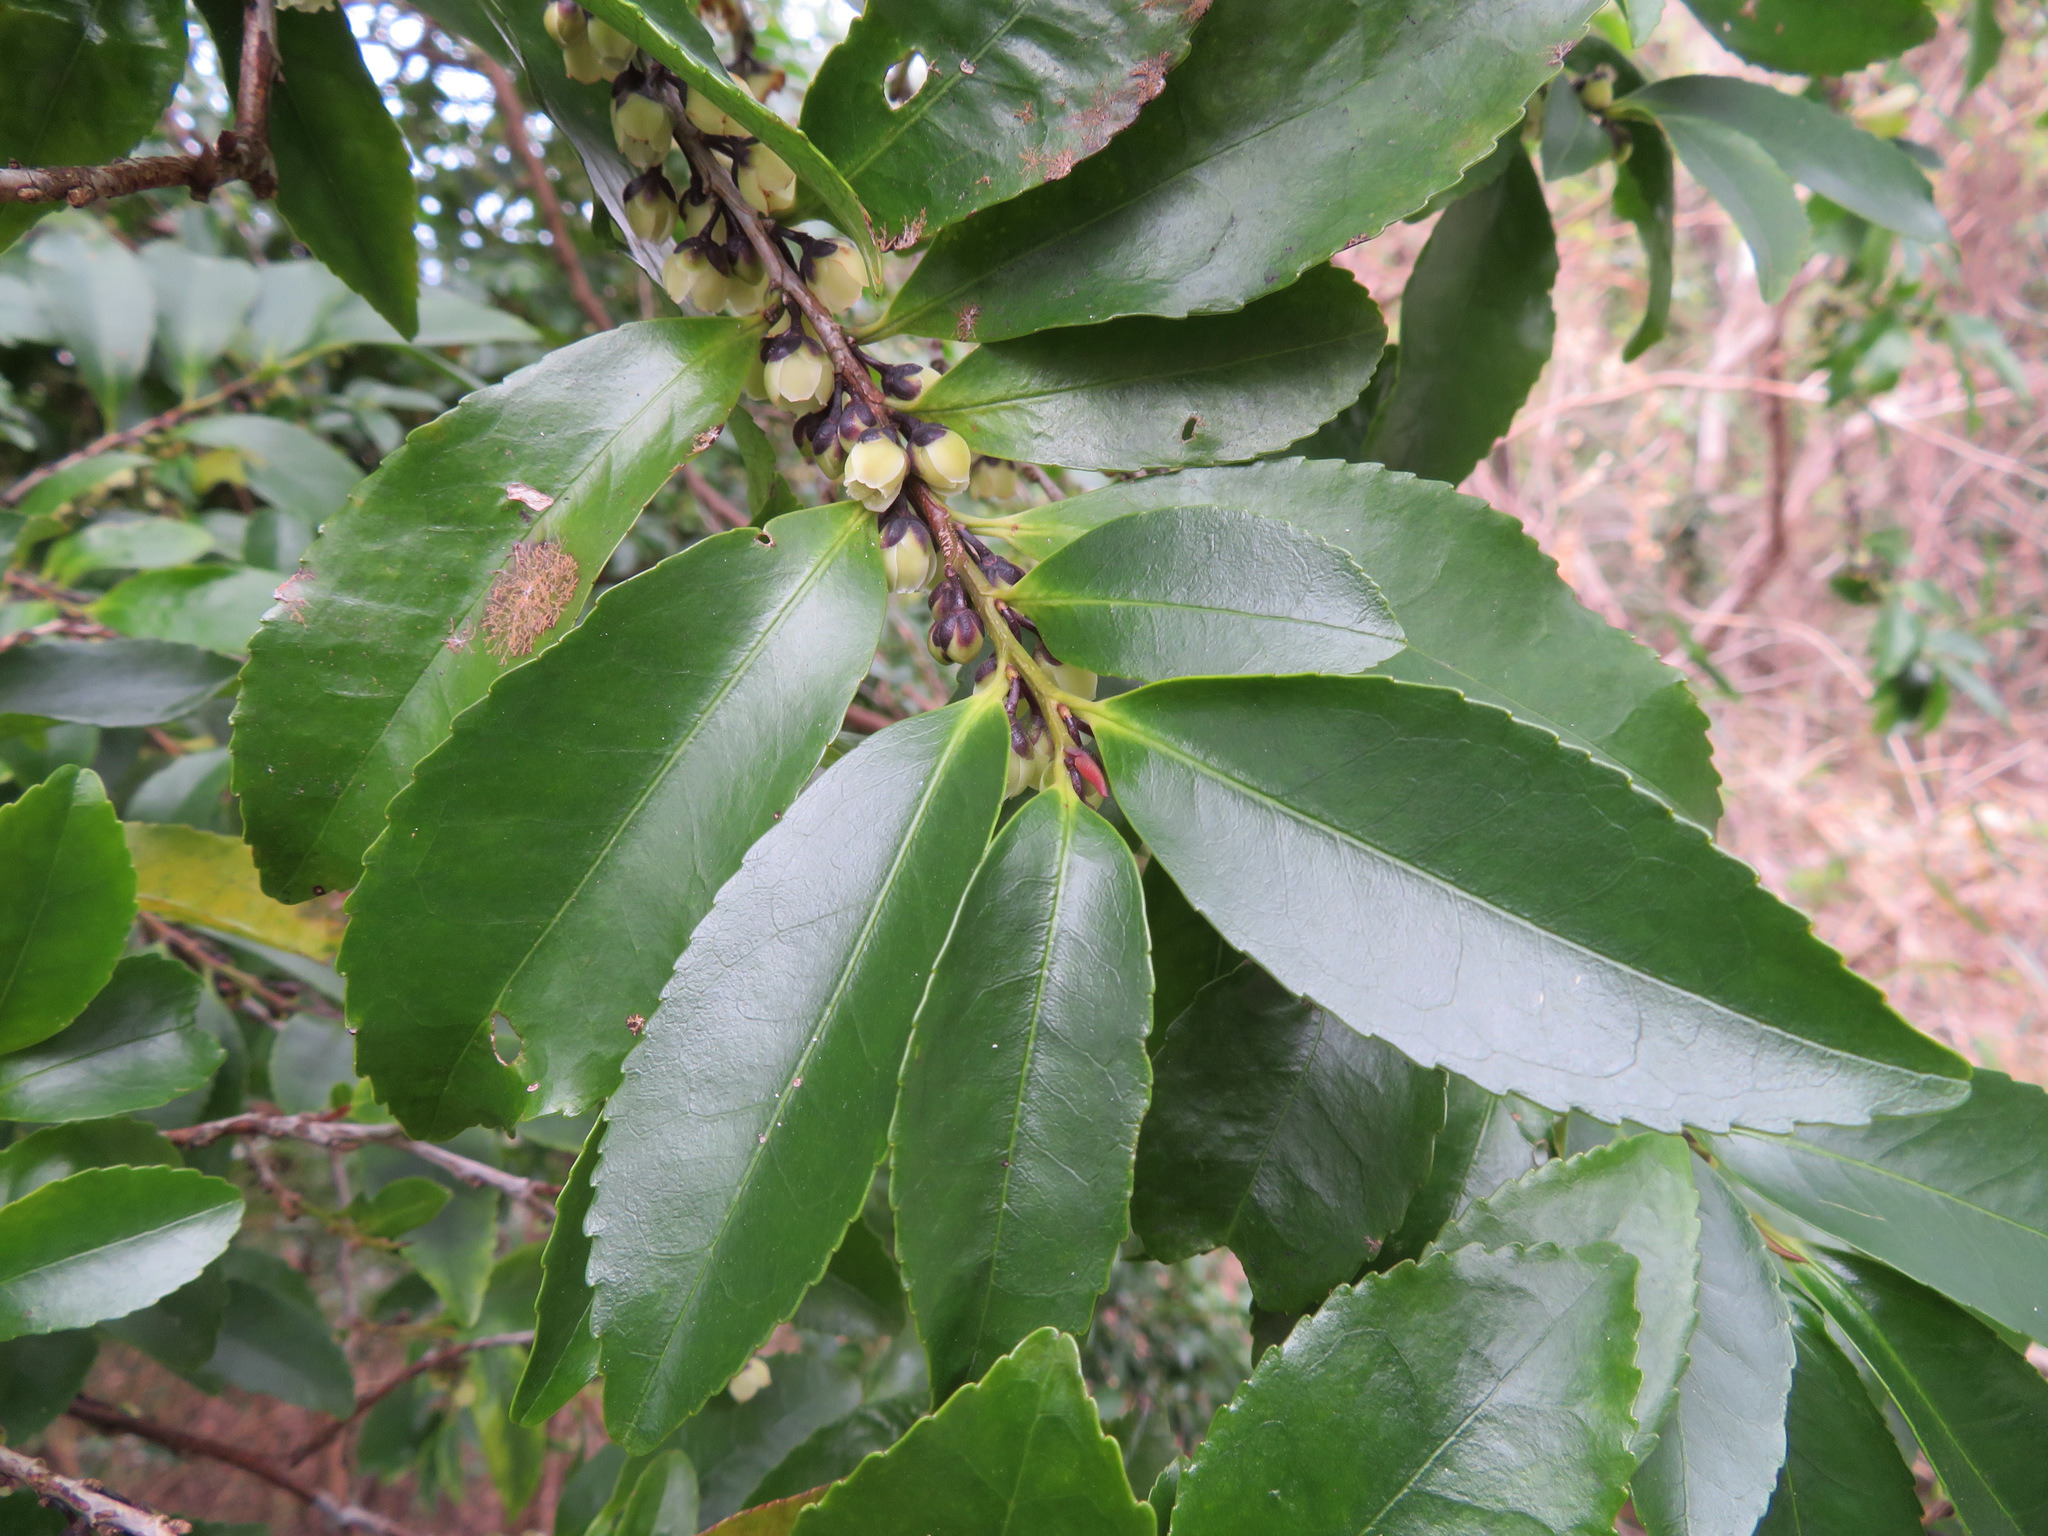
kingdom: Plantae
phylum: Tracheophyta
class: Magnoliopsida
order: Ericales
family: Pentaphylacaceae
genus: Eurya
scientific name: Eurya japonica
